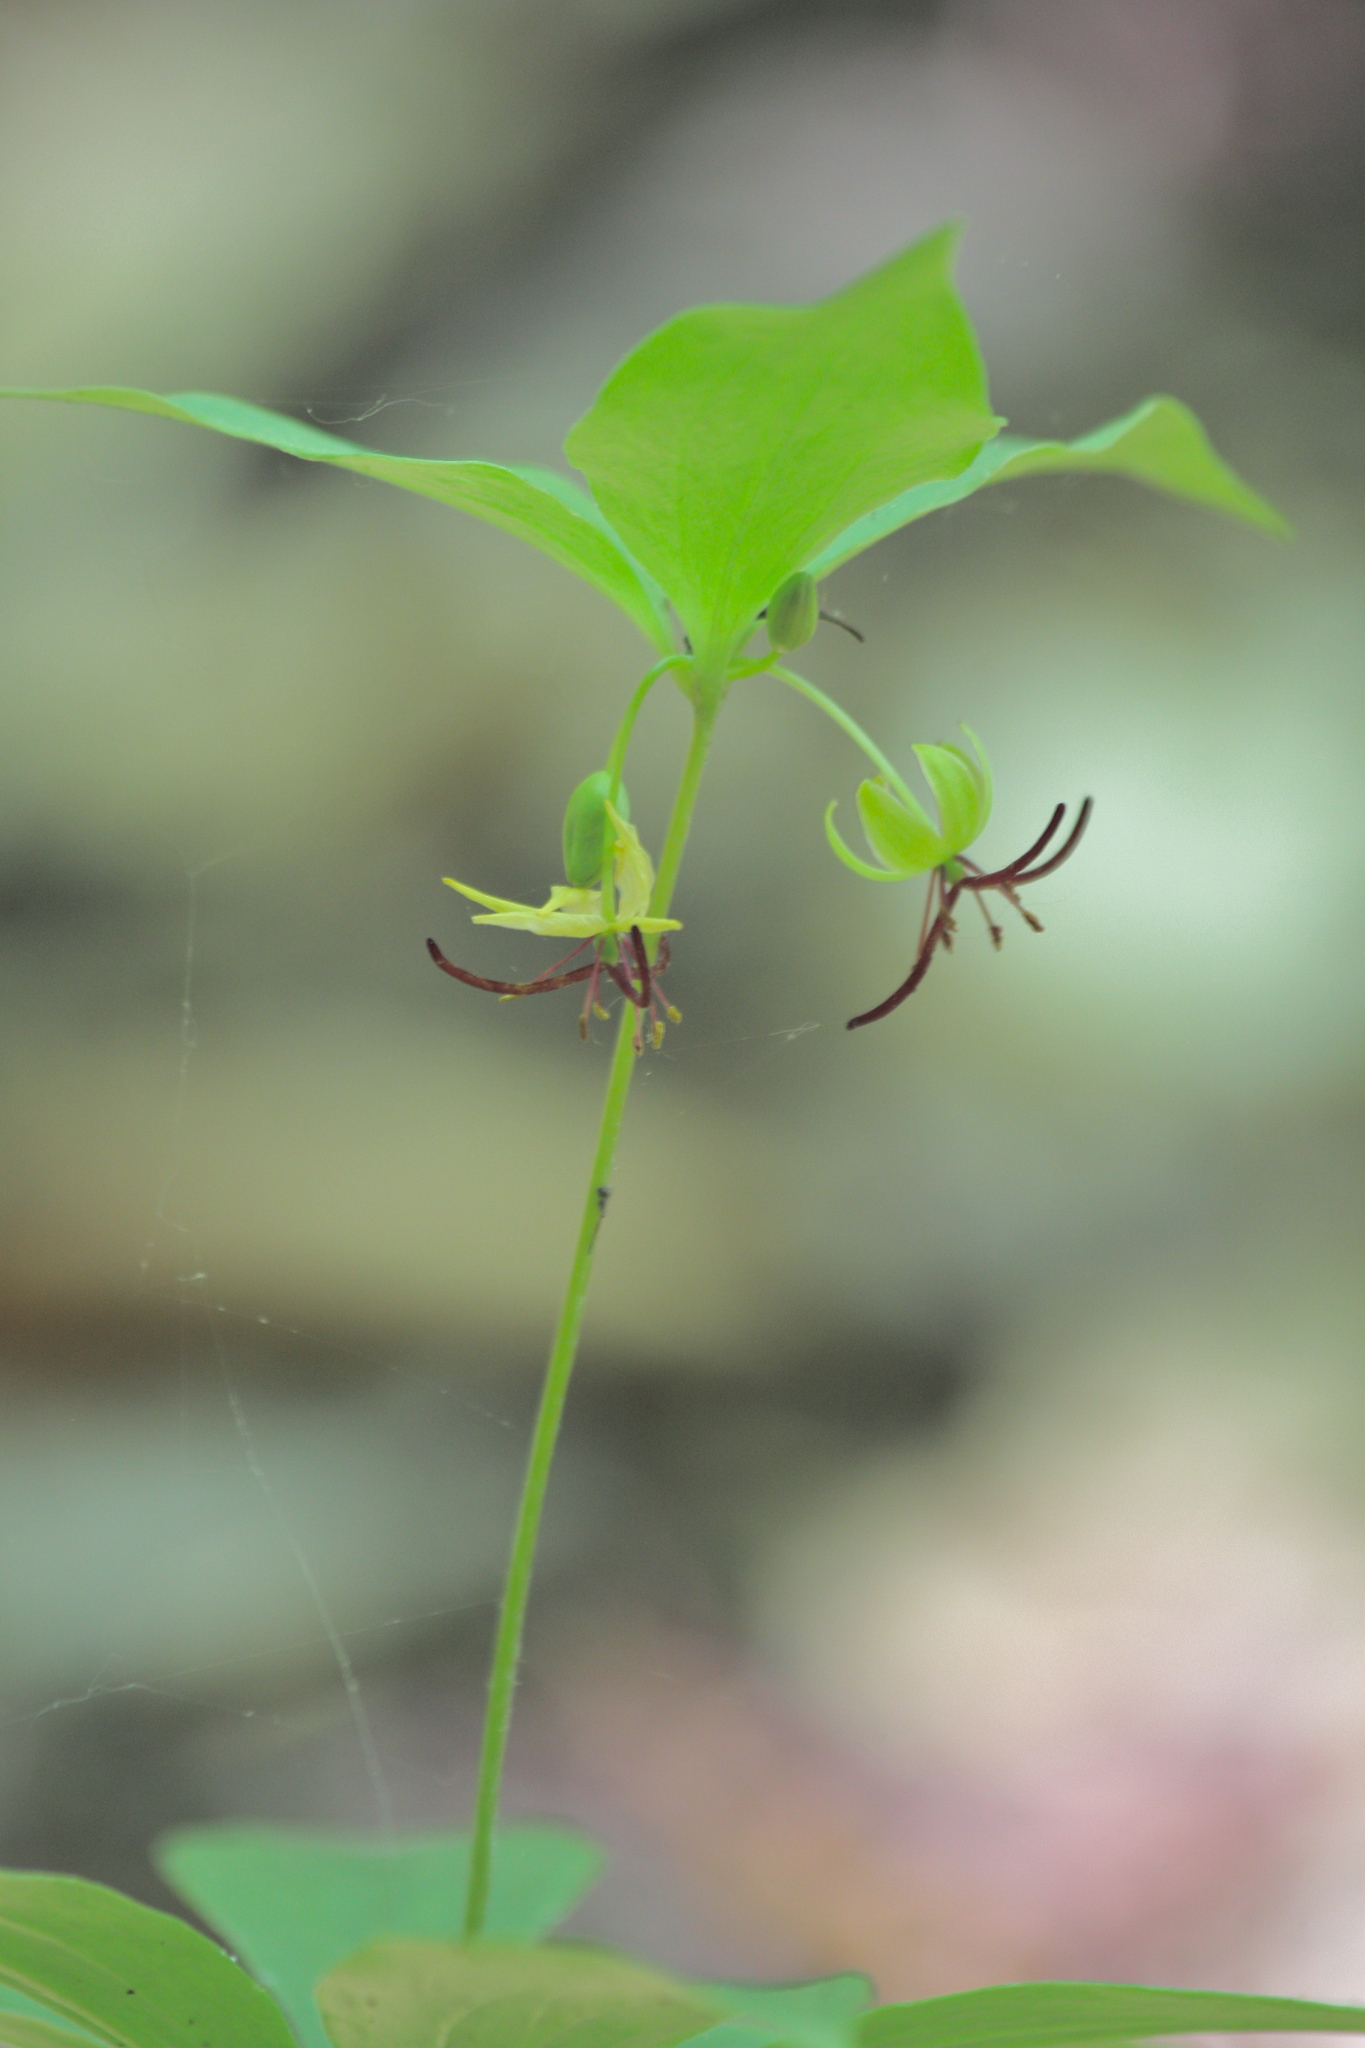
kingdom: Plantae
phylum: Tracheophyta
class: Liliopsida
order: Liliales
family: Liliaceae
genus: Medeola
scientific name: Medeola virginiana
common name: Indian cucumber-root
